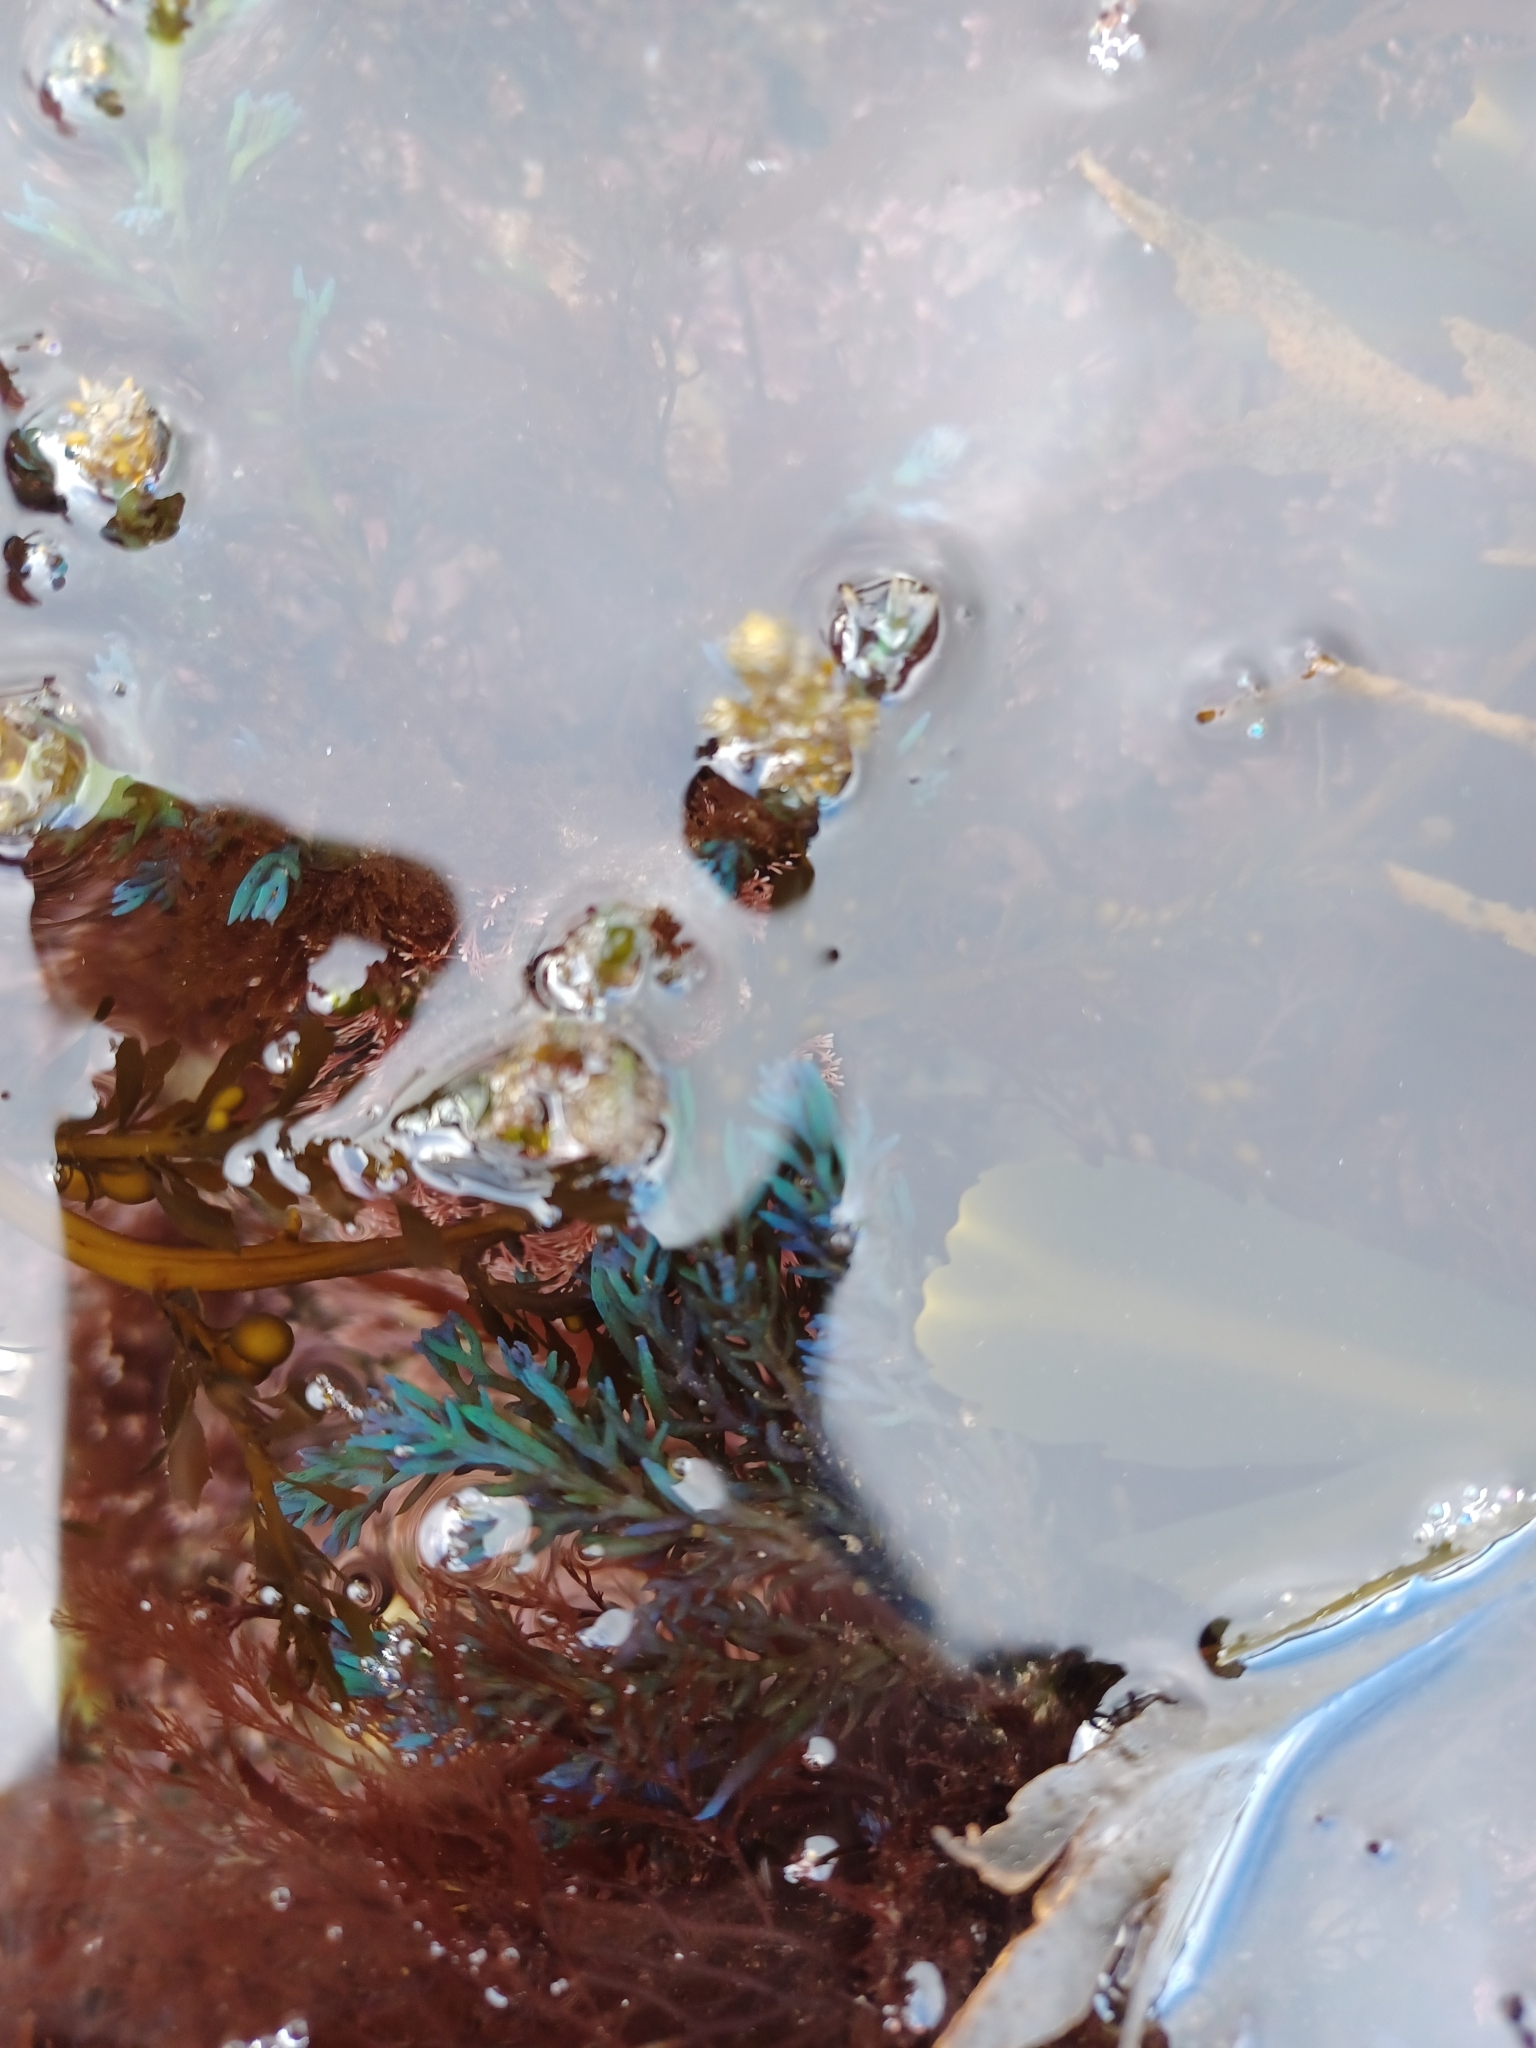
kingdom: Chromista
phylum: Ochrophyta
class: Phaeophyceae
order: Fucales
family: Sargassaceae
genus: Cystoseira
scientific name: Cystoseira Ericaria selaginoides
